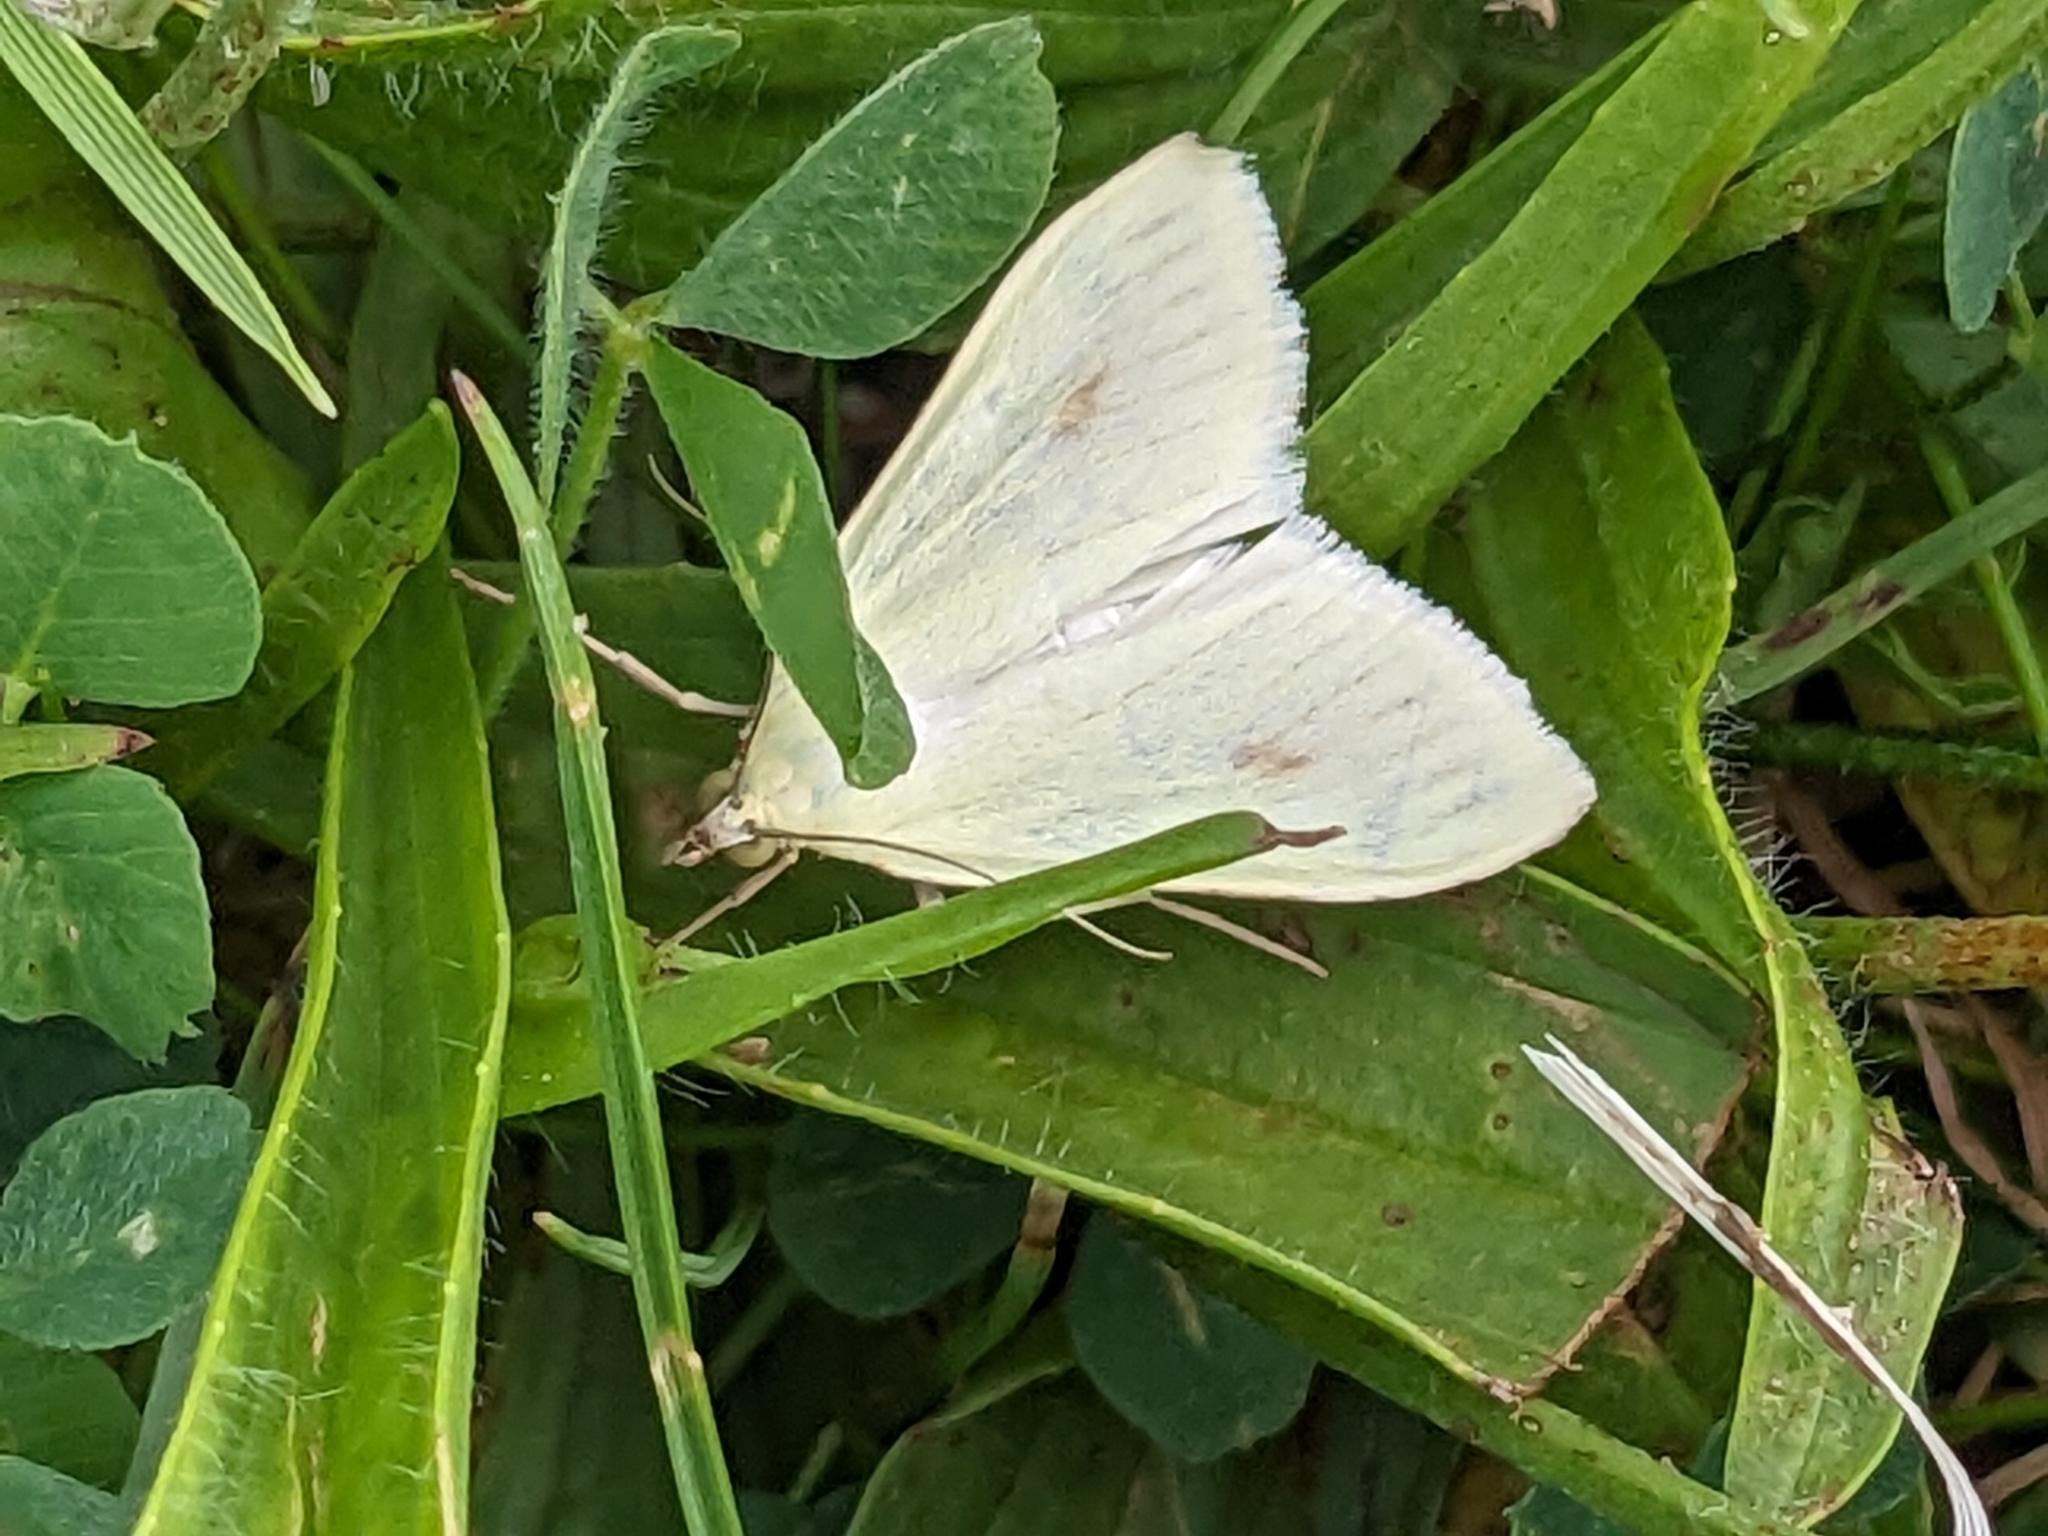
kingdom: Animalia
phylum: Arthropoda
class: Insecta
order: Lepidoptera
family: Crambidae
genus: Sitochroa
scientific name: Sitochroa palealis
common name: Greenish-yellow sitochroa moth
